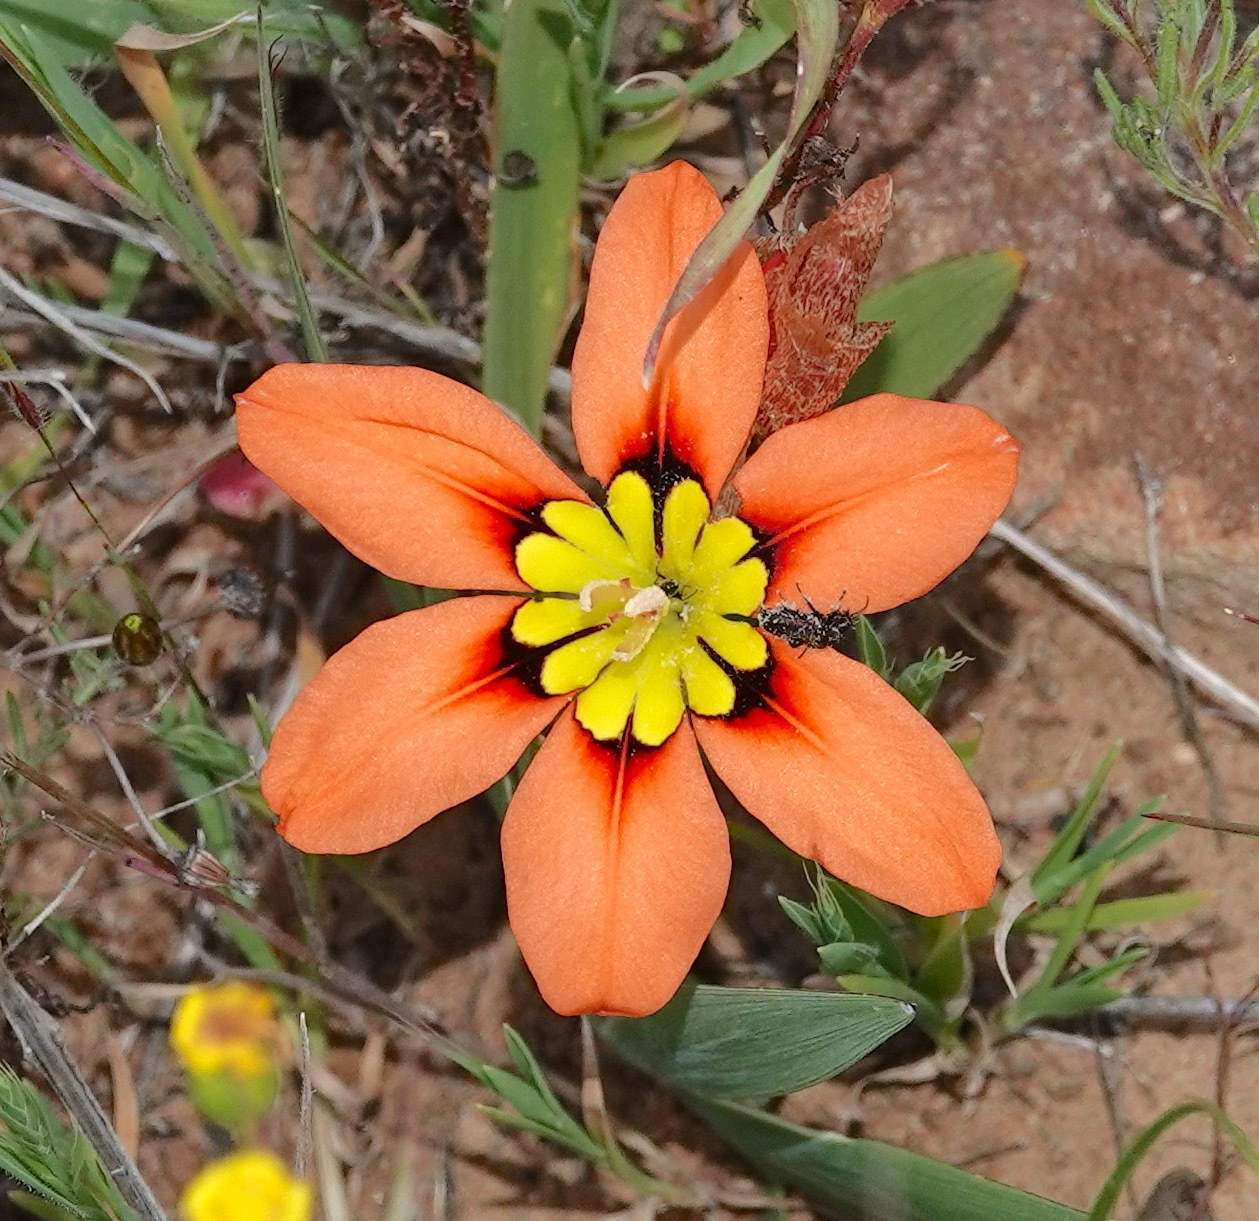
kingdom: Plantae
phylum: Tracheophyta
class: Liliopsida
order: Asparagales
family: Iridaceae
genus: Sparaxis
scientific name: Sparaxis tricolor
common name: Wandflower
